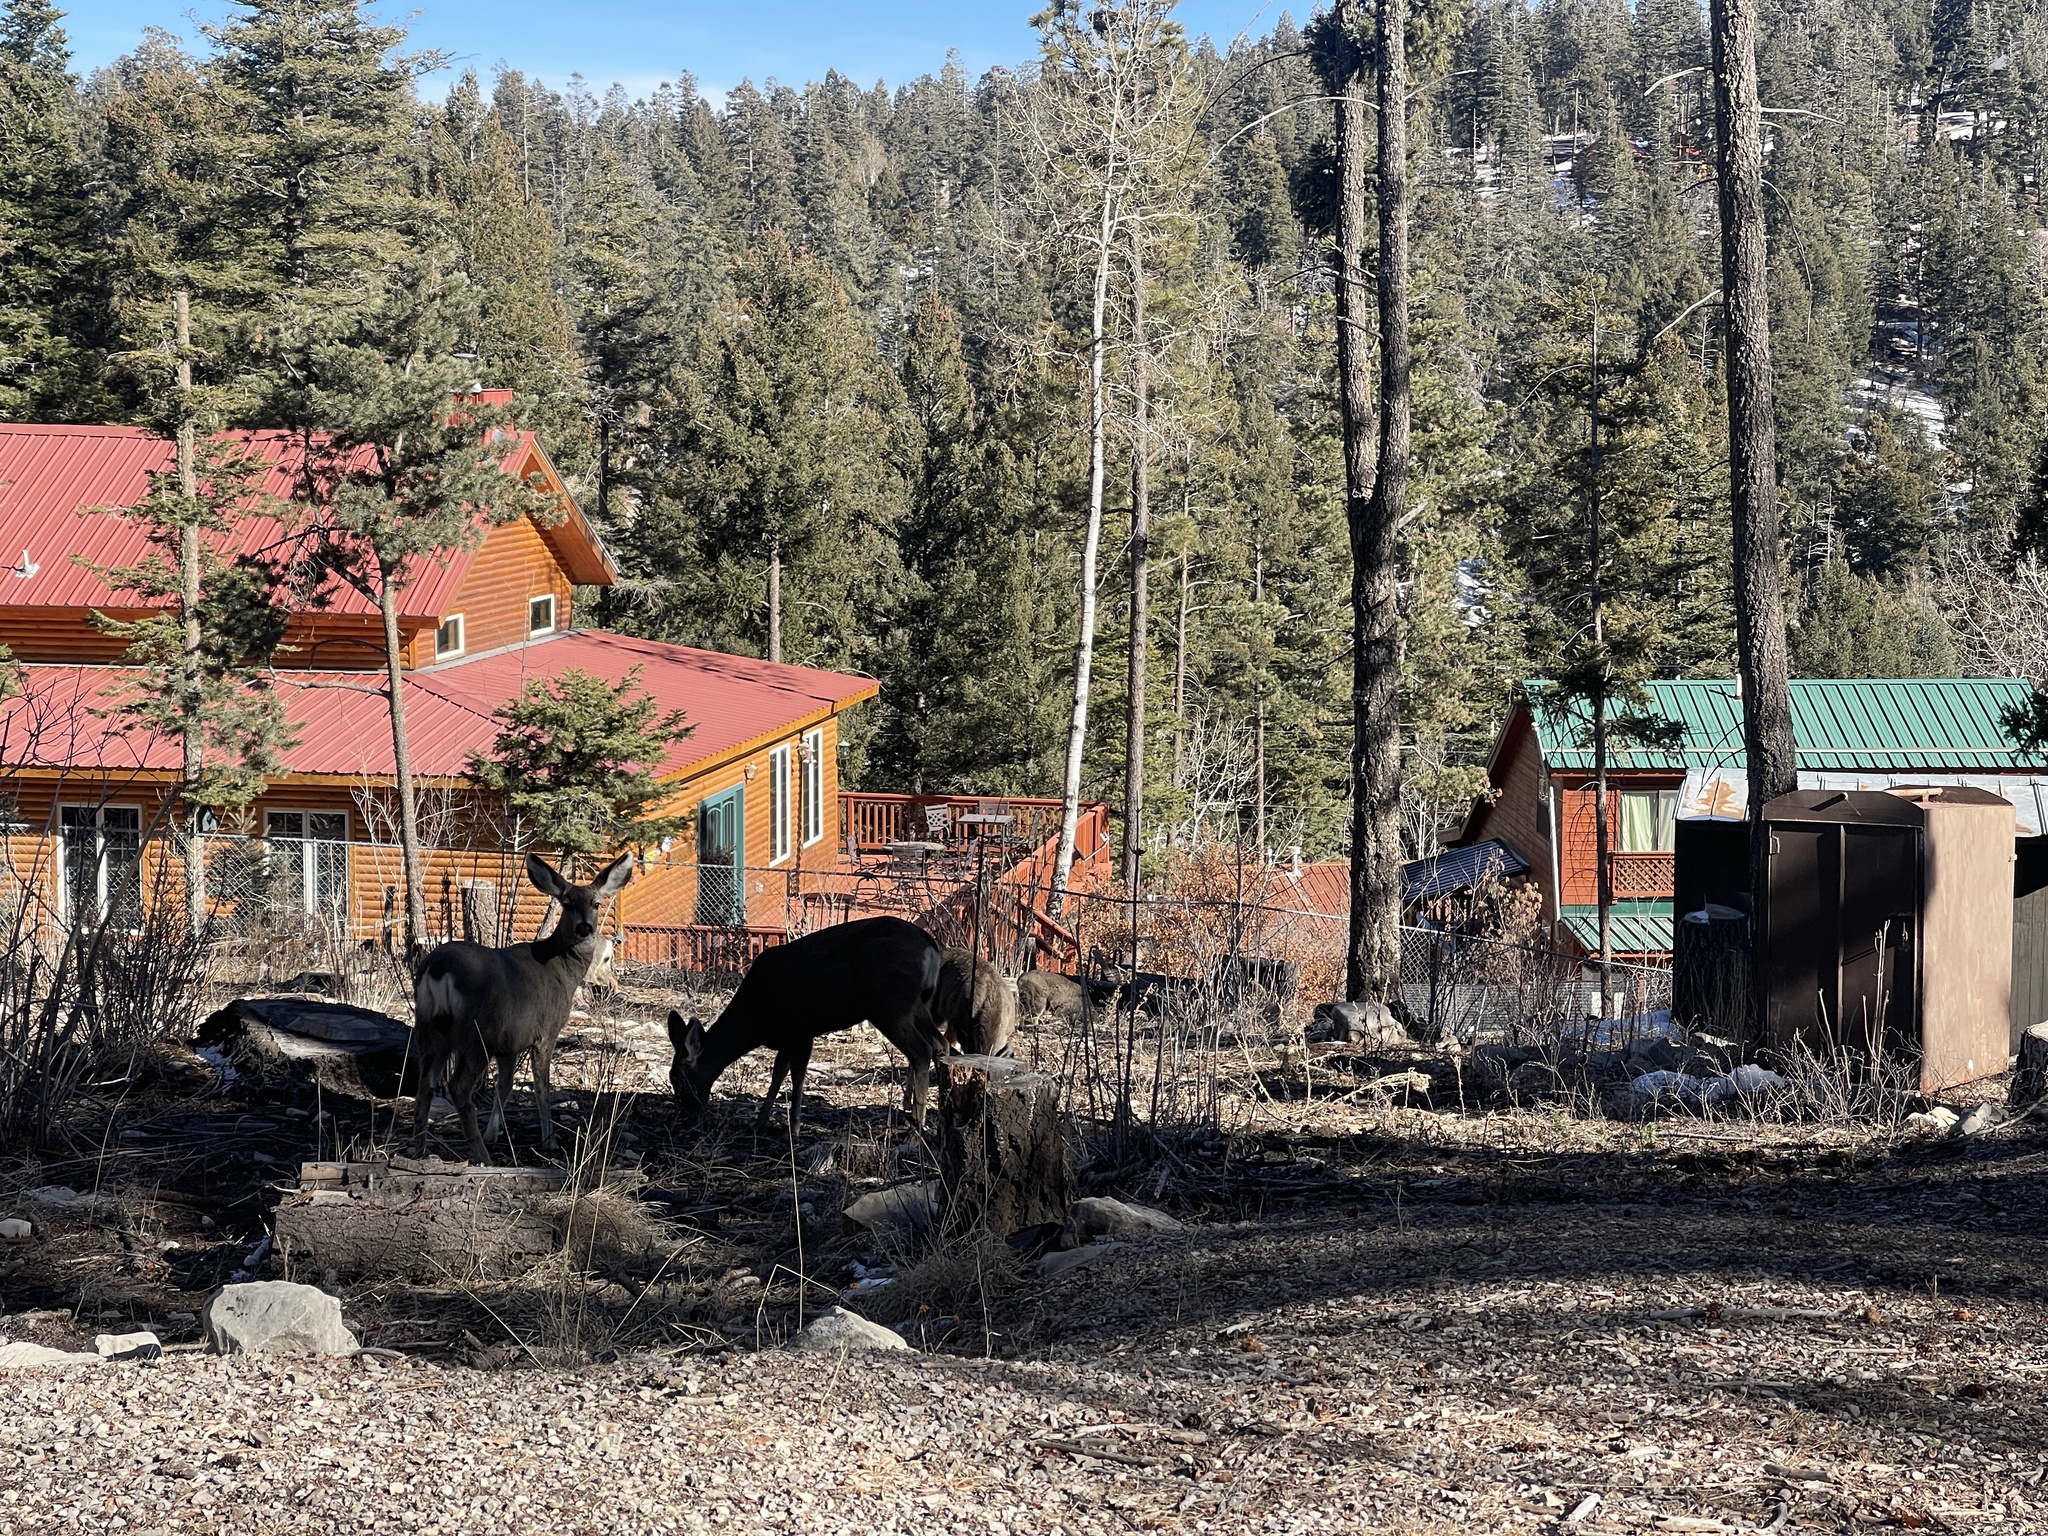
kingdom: Animalia
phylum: Chordata
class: Mammalia
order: Artiodactyla
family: Cervidae
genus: Odocoileus
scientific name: Odocoileus hemionus
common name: Mule deer
